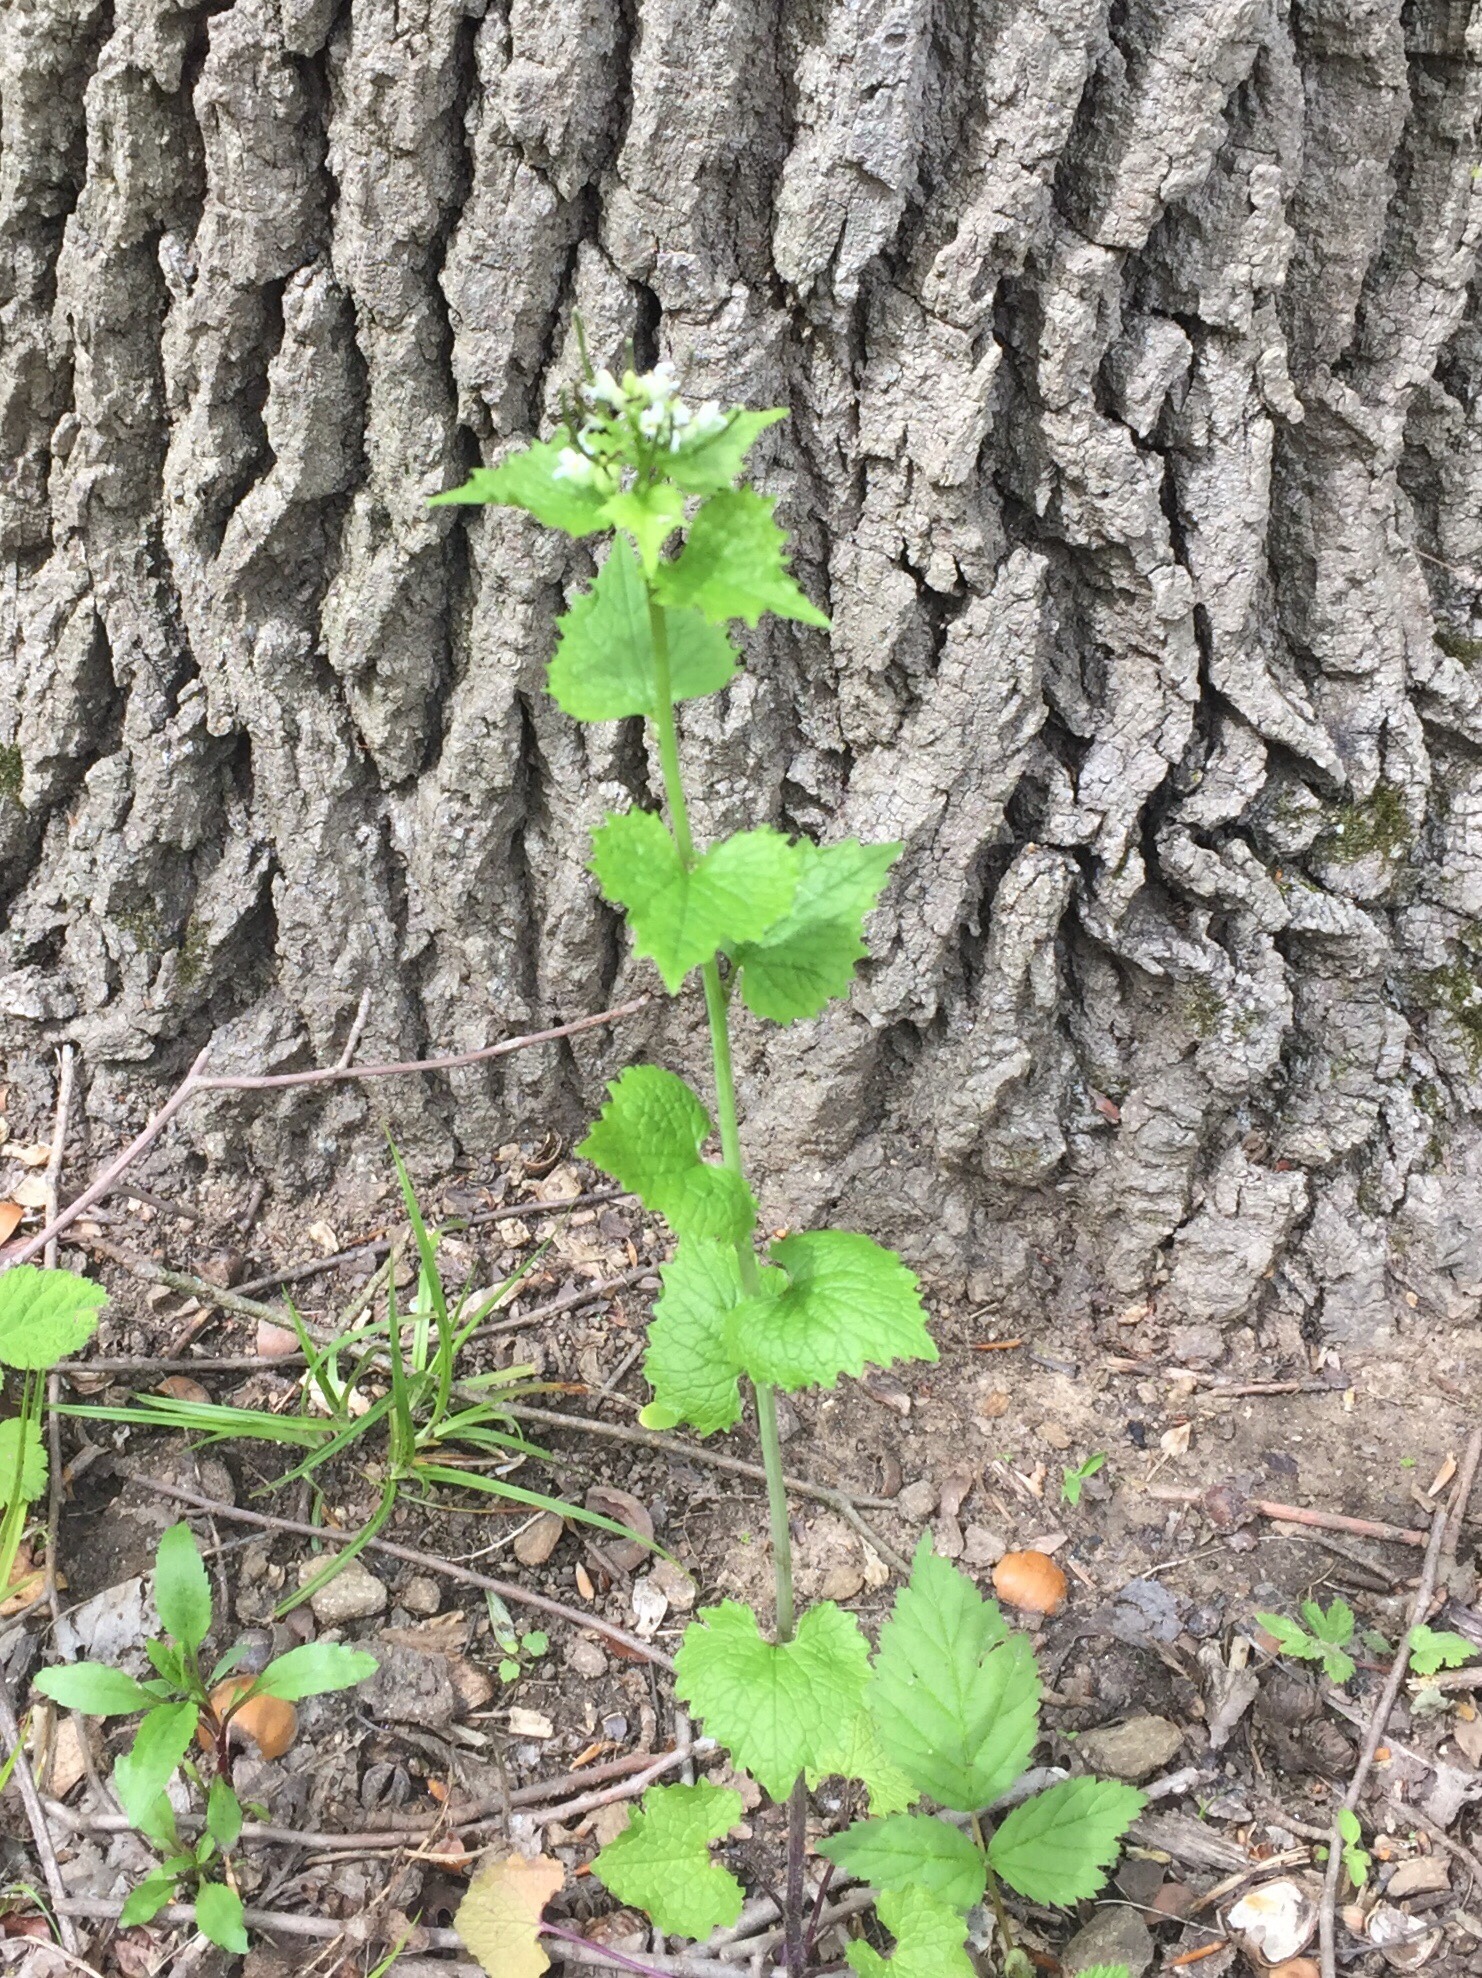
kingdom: Plantae
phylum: Tracheophyta
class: Magnoliopsida
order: Brassicales
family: Brassicaceae
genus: Alliaria
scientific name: Alliaria petiolata
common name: Garlic mustard
